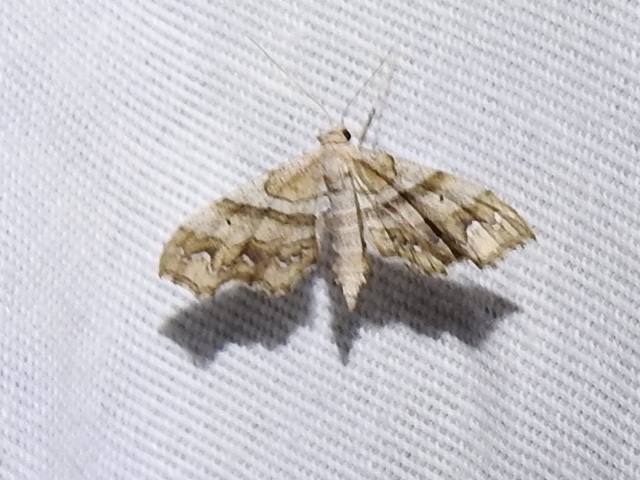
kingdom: Animalia
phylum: Arthropoda
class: Insecta
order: Lepidoptera
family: Geometridae
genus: Odontoptila
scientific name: Odontoptila obrimo
